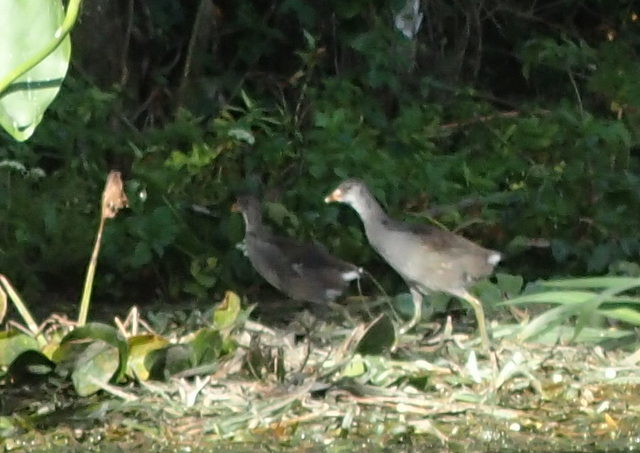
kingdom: Animalia
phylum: Chordata
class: Aves
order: Gruiformes
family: Rallidae
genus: Gallinula
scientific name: Gallinula chloropus
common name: Common moorhen
